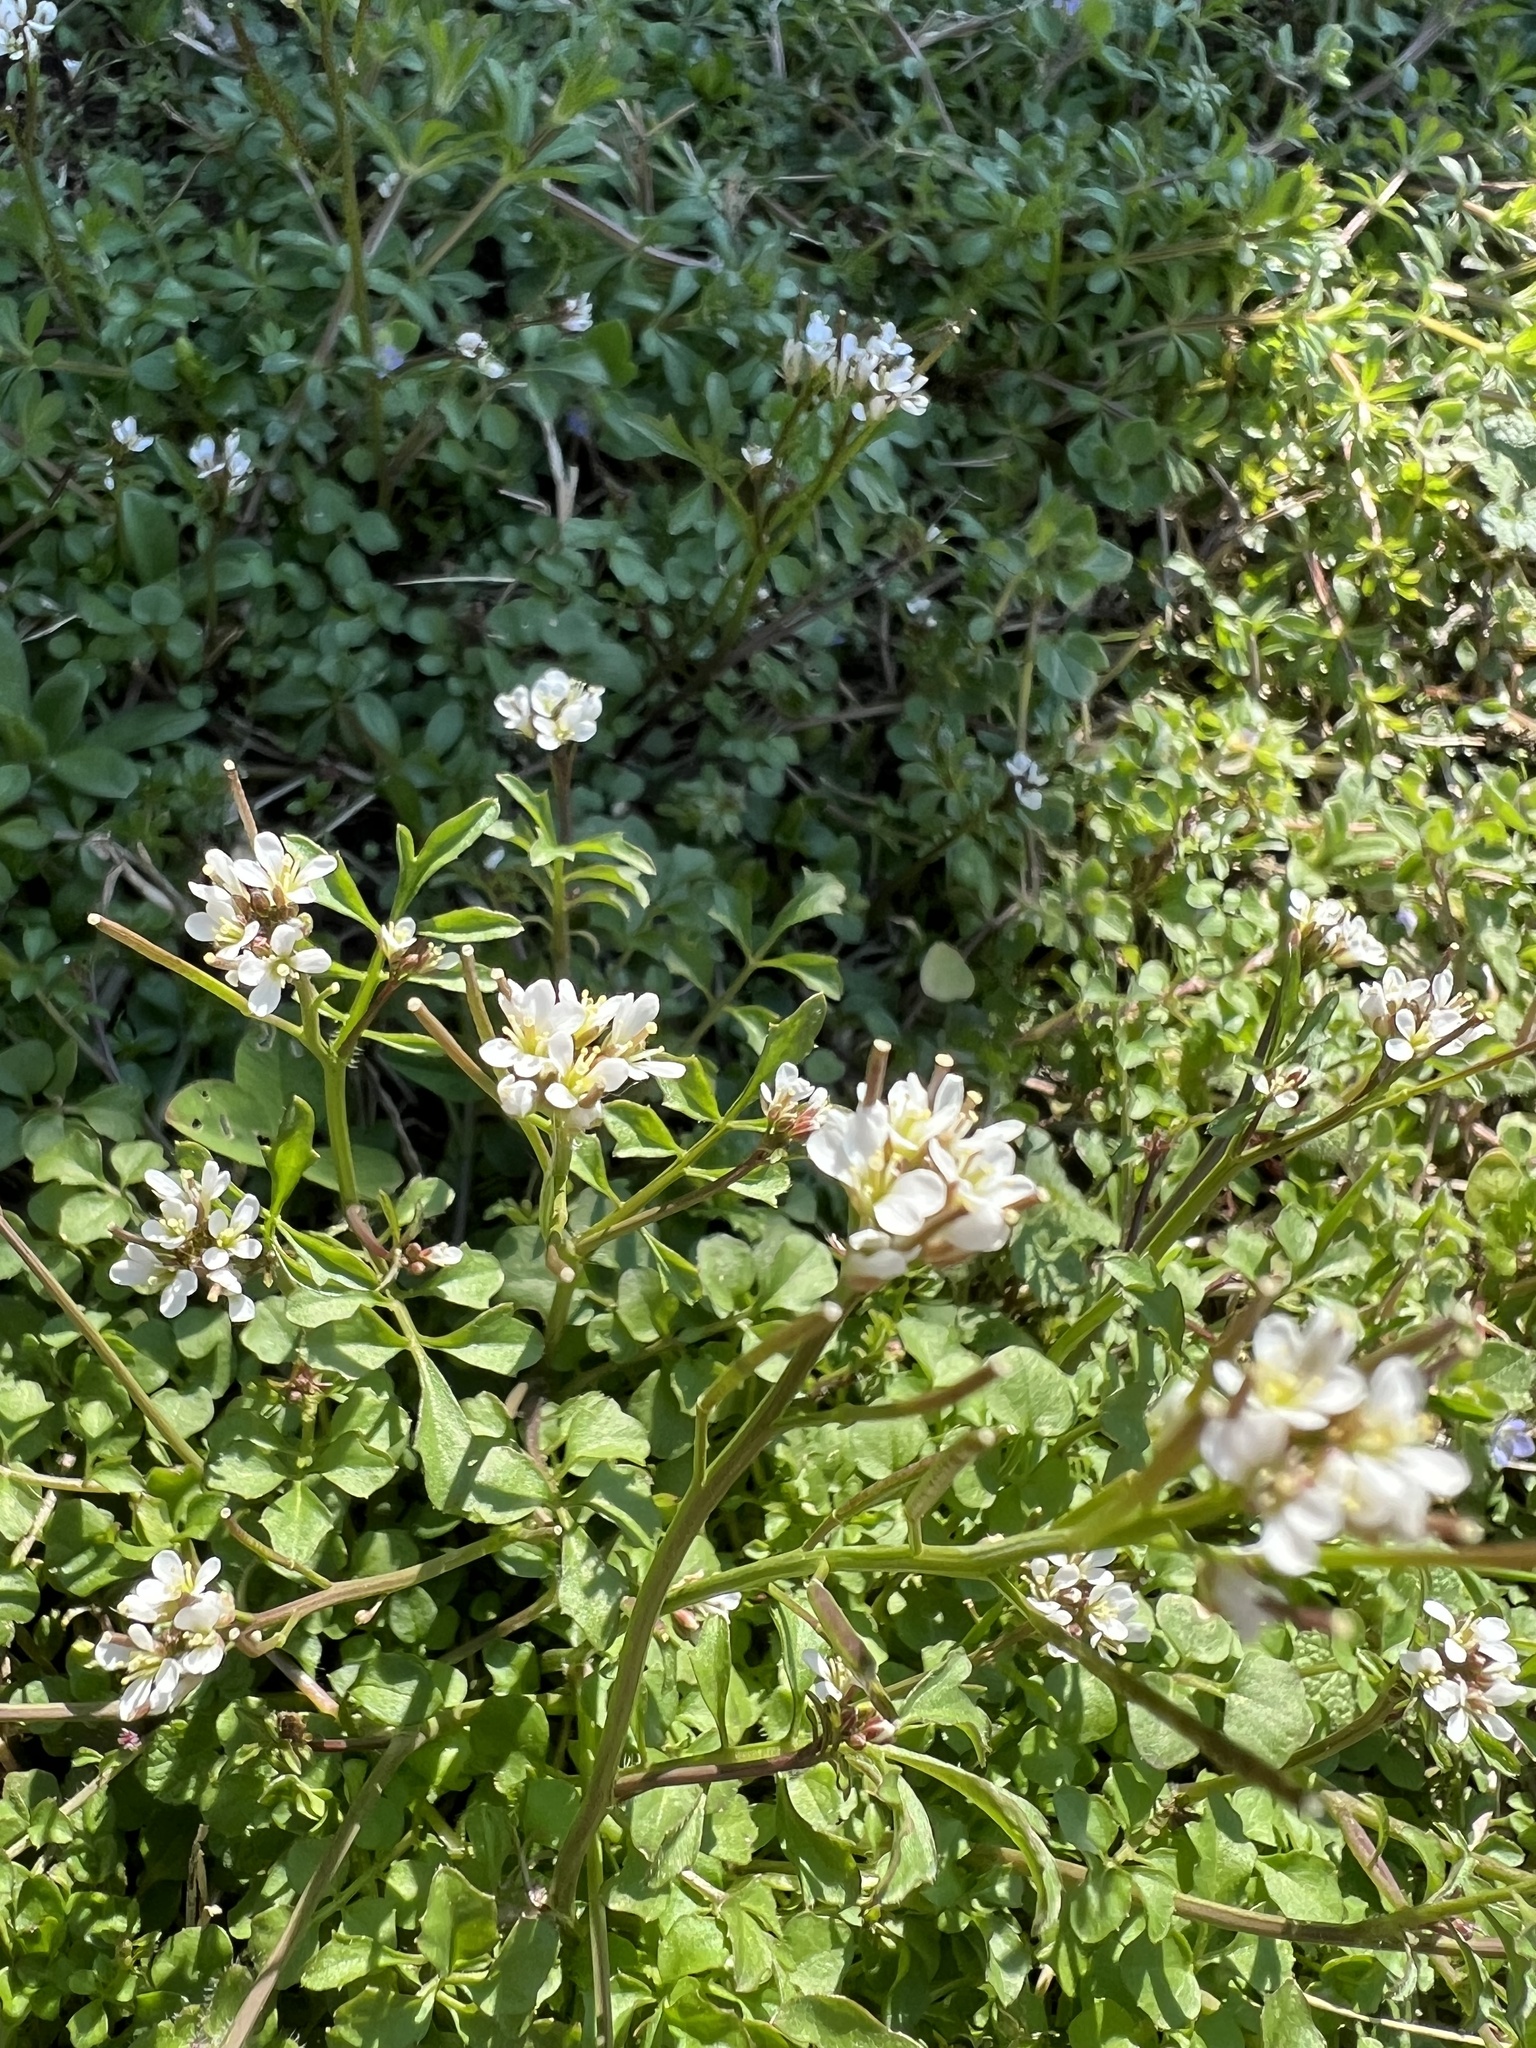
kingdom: Plantae
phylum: Tracheophyta
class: Magnoliopsida
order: Brassicales
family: Brassicaceae
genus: Cardamine
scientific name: Cardamine hirsuta
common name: Hairy bittercress
